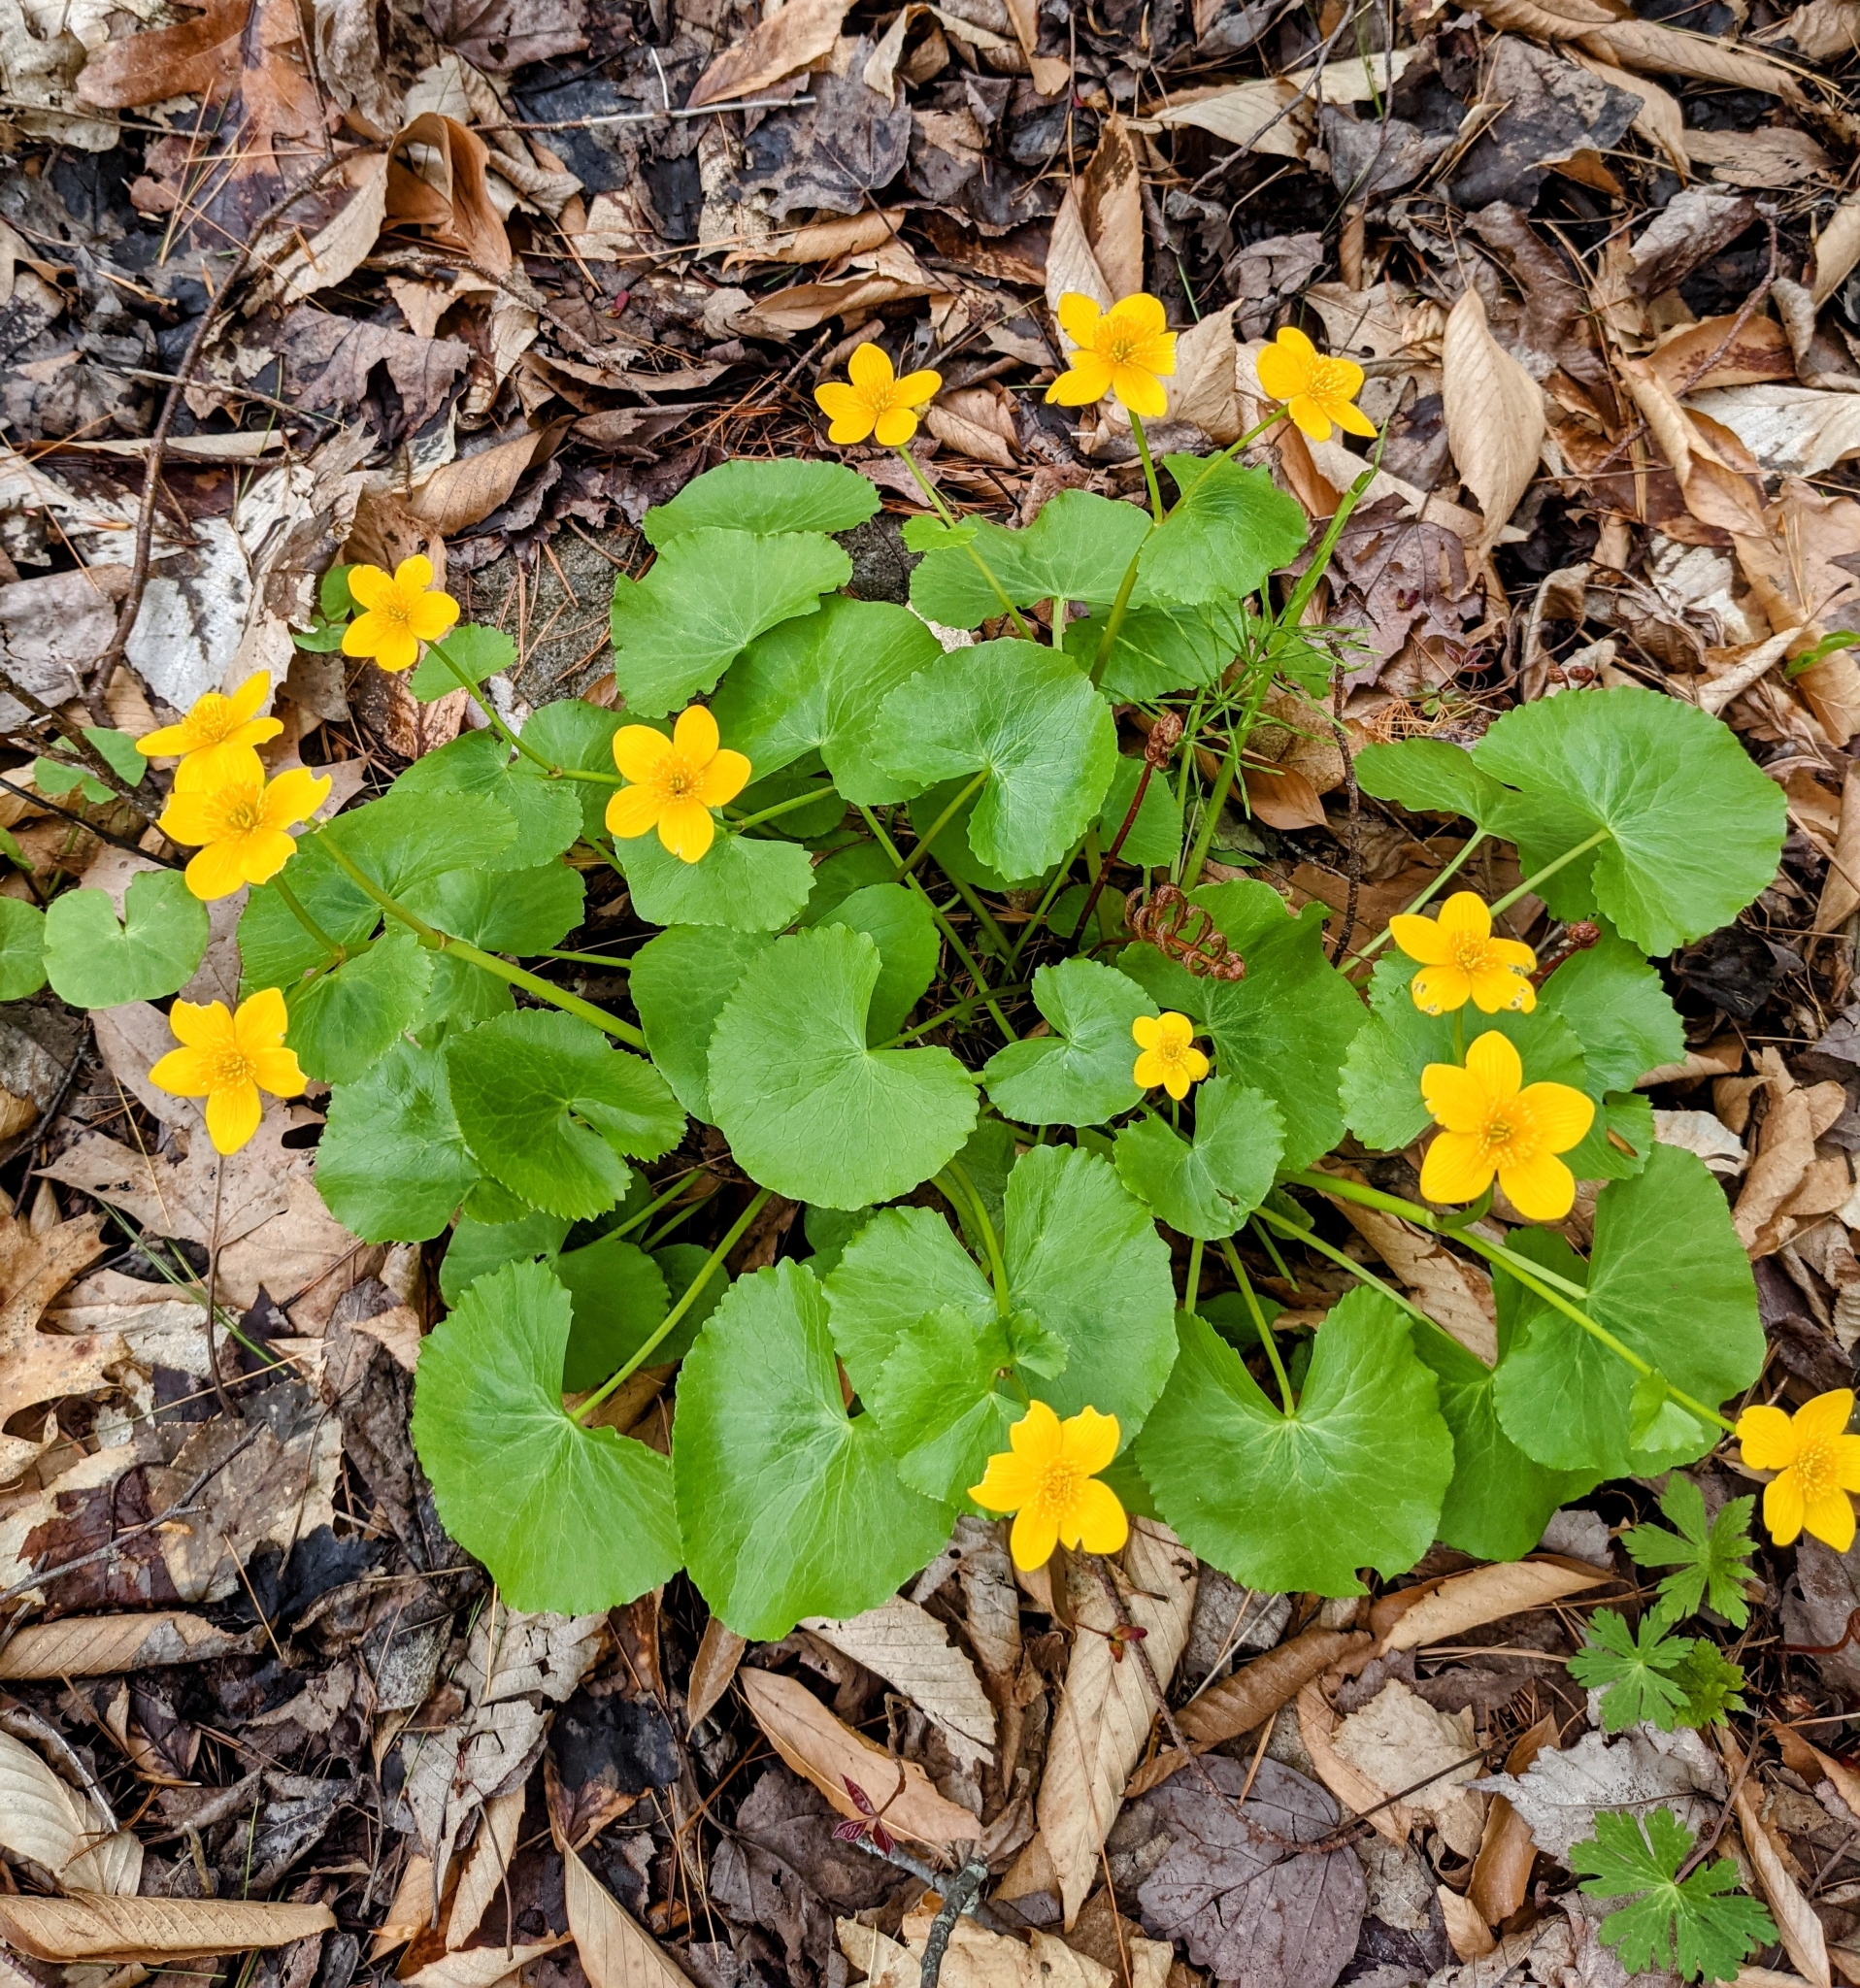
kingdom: Plantae
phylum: Tracheophyta
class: Magnoliopsida
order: Ranunculales
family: Ranunculaceae
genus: Caltha
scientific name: Caltha palustris
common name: Marsh marigold
